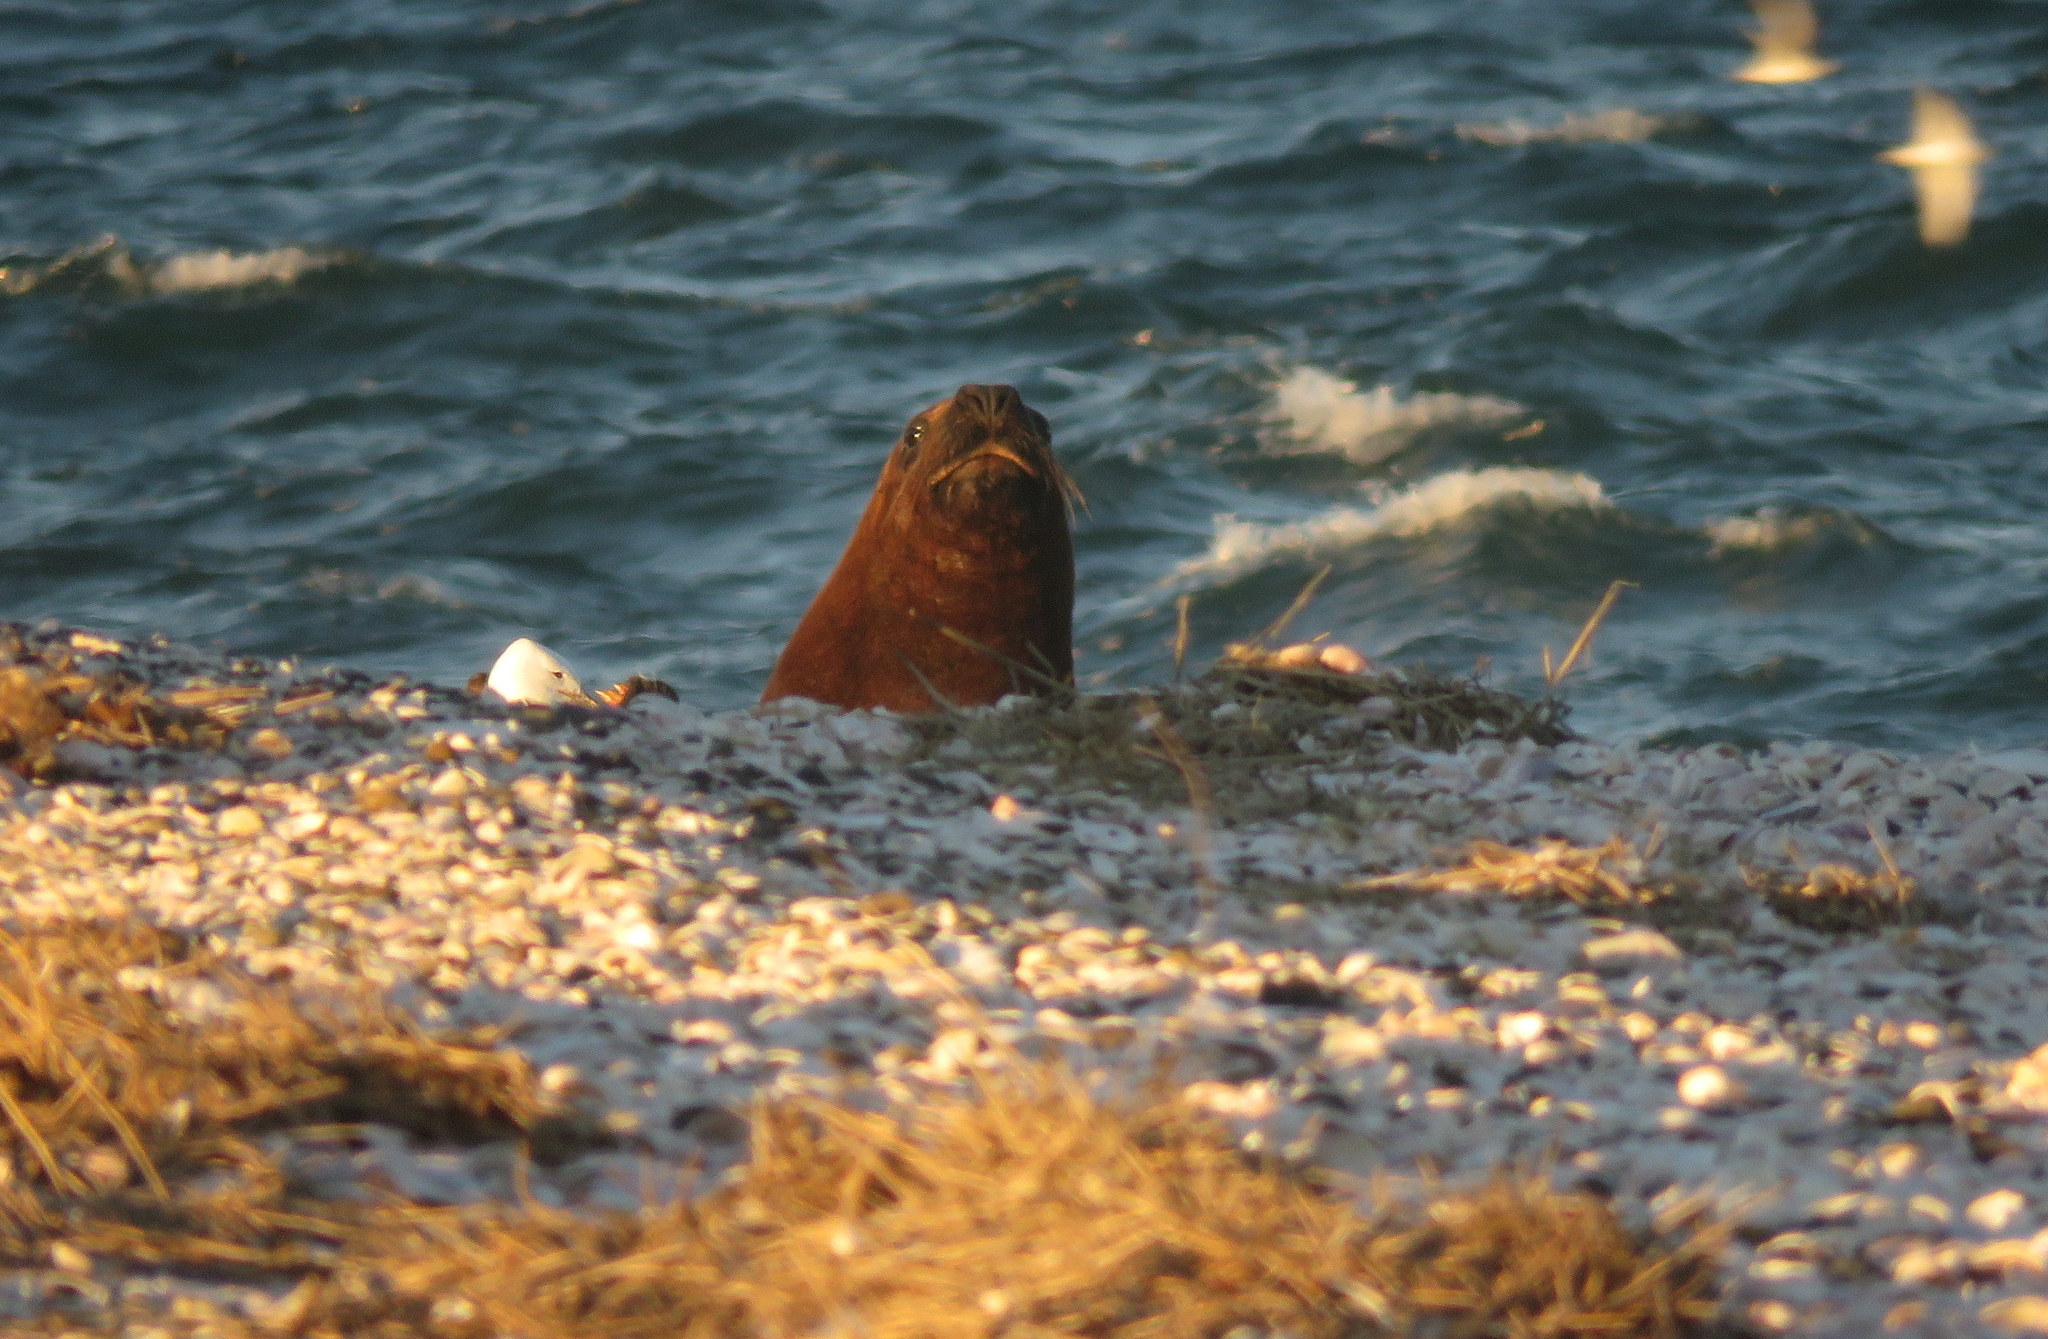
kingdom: Animalia
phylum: Chordata
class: Mammalia
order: Carnivora
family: Otariidae
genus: Otaria
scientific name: Otaria byronia
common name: South american sea lion
